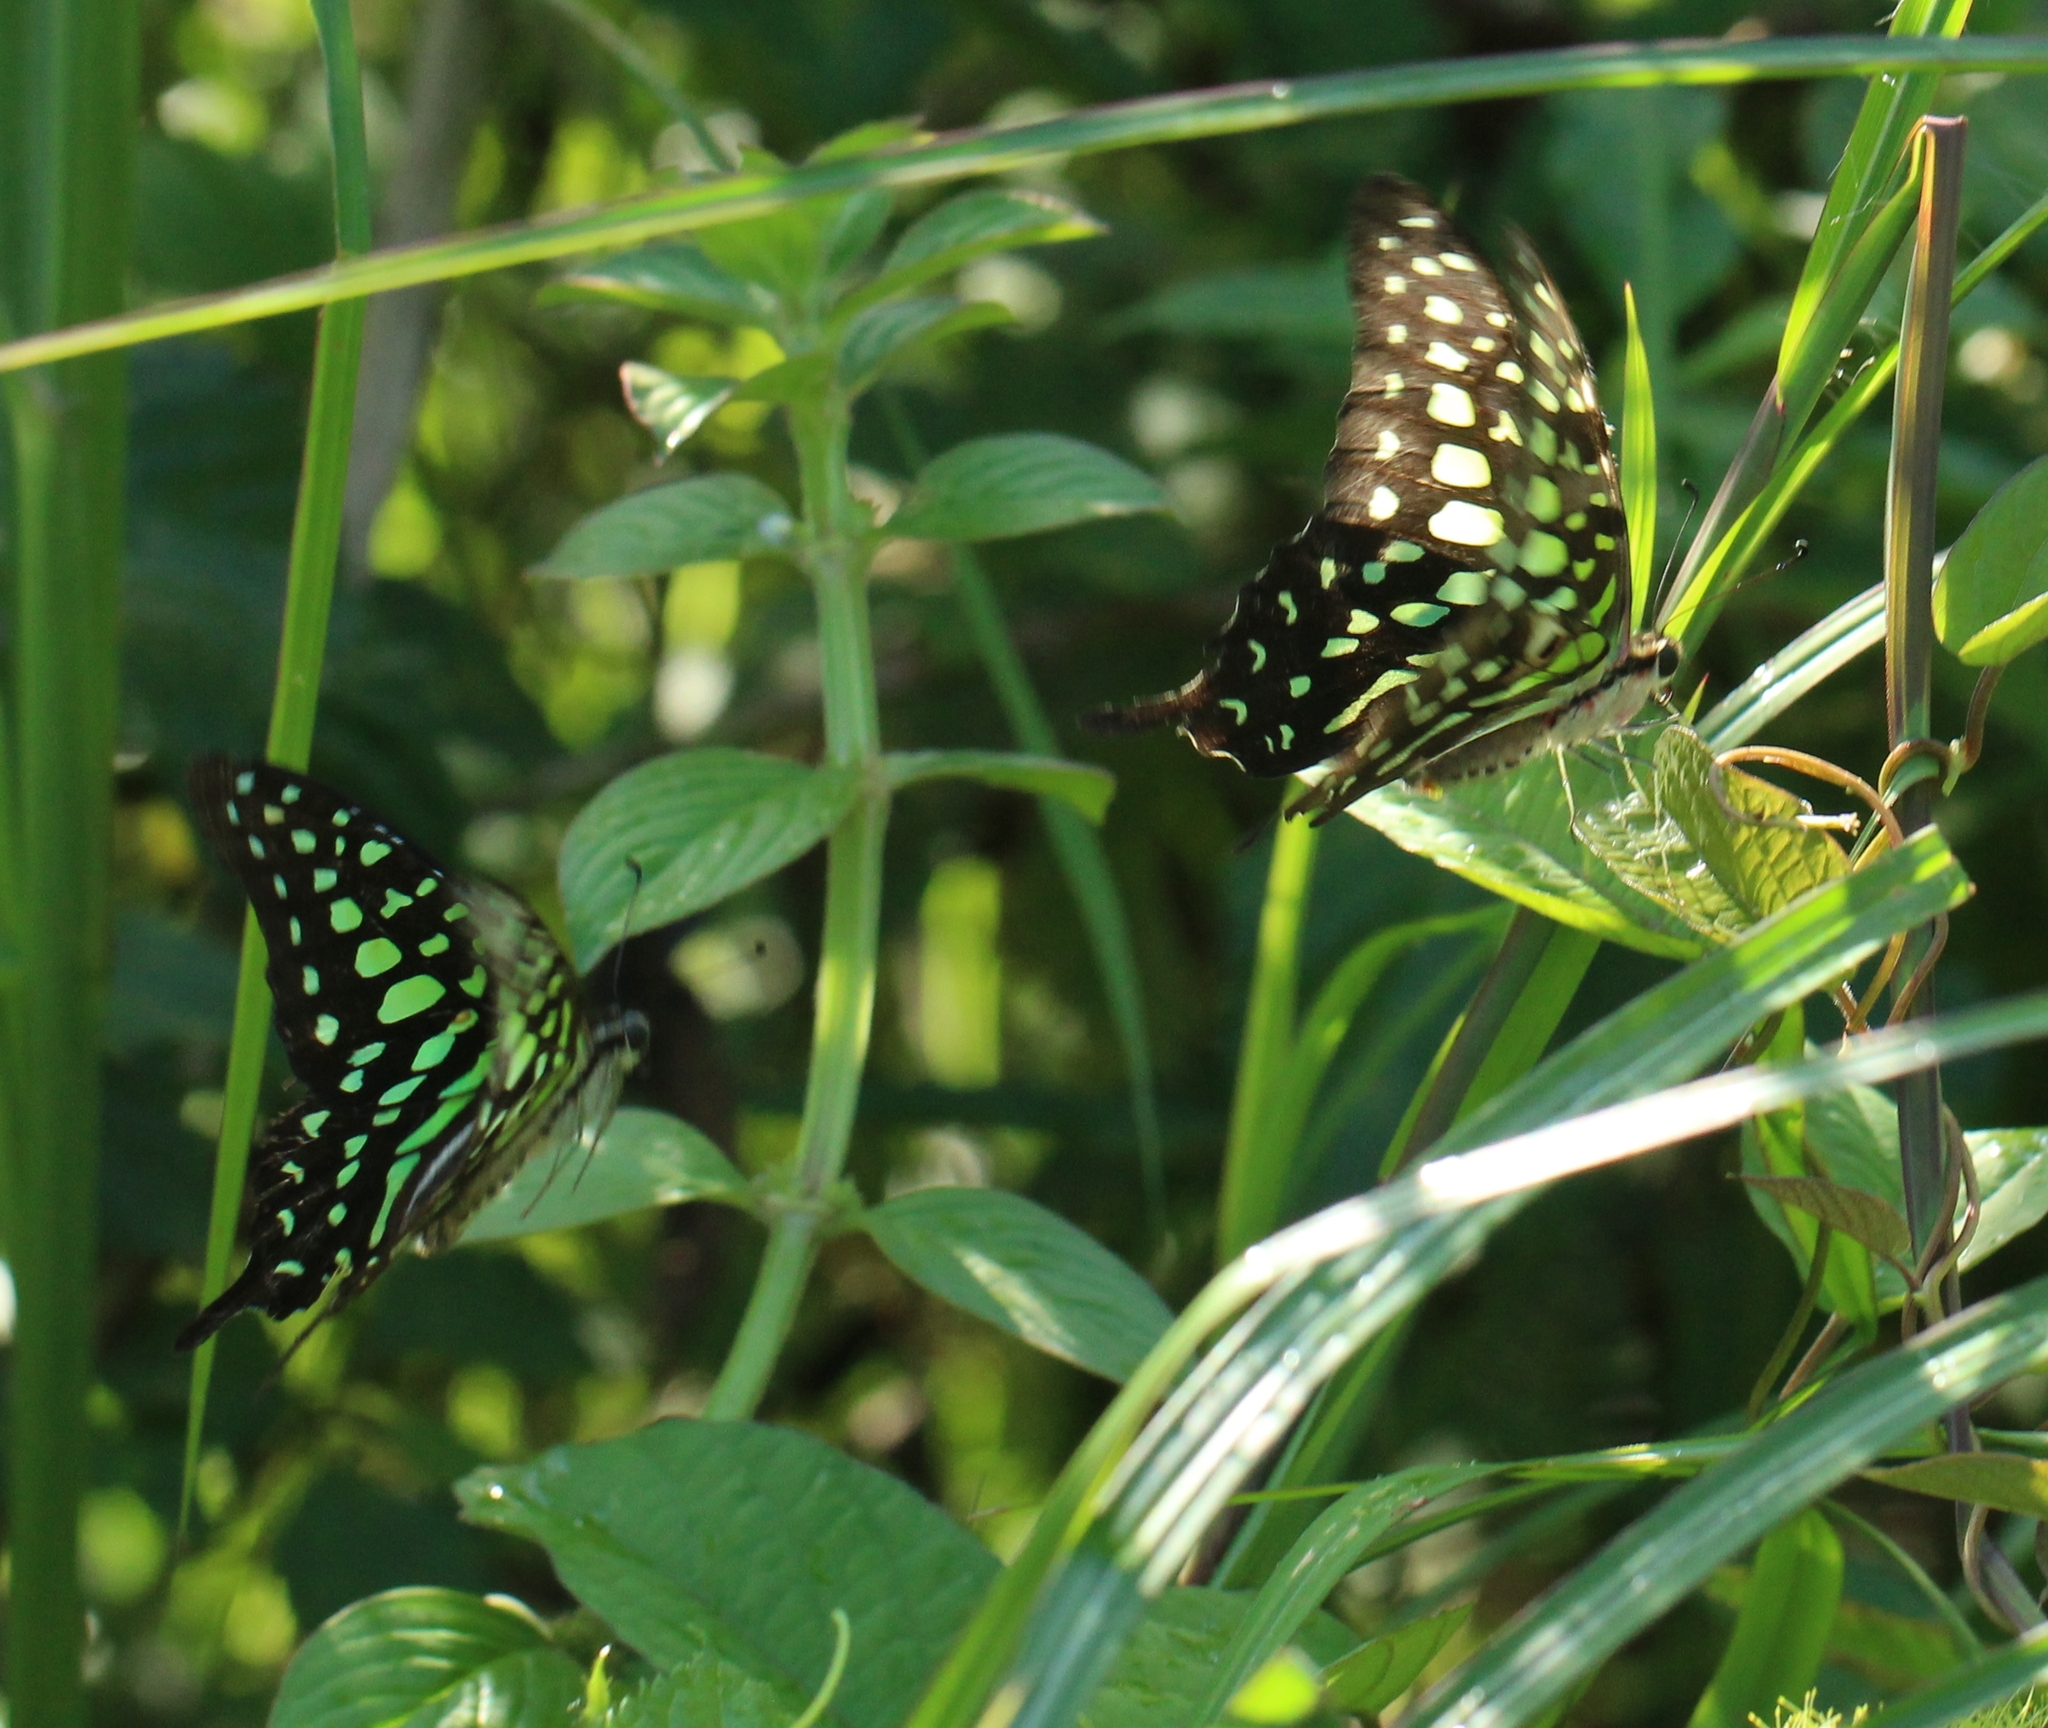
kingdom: Animalia
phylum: Arthropoda
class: Insecta
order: Lepidoptera
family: Papilionidae
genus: Graphium
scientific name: Graphium agamemnon
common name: Tailed jay
